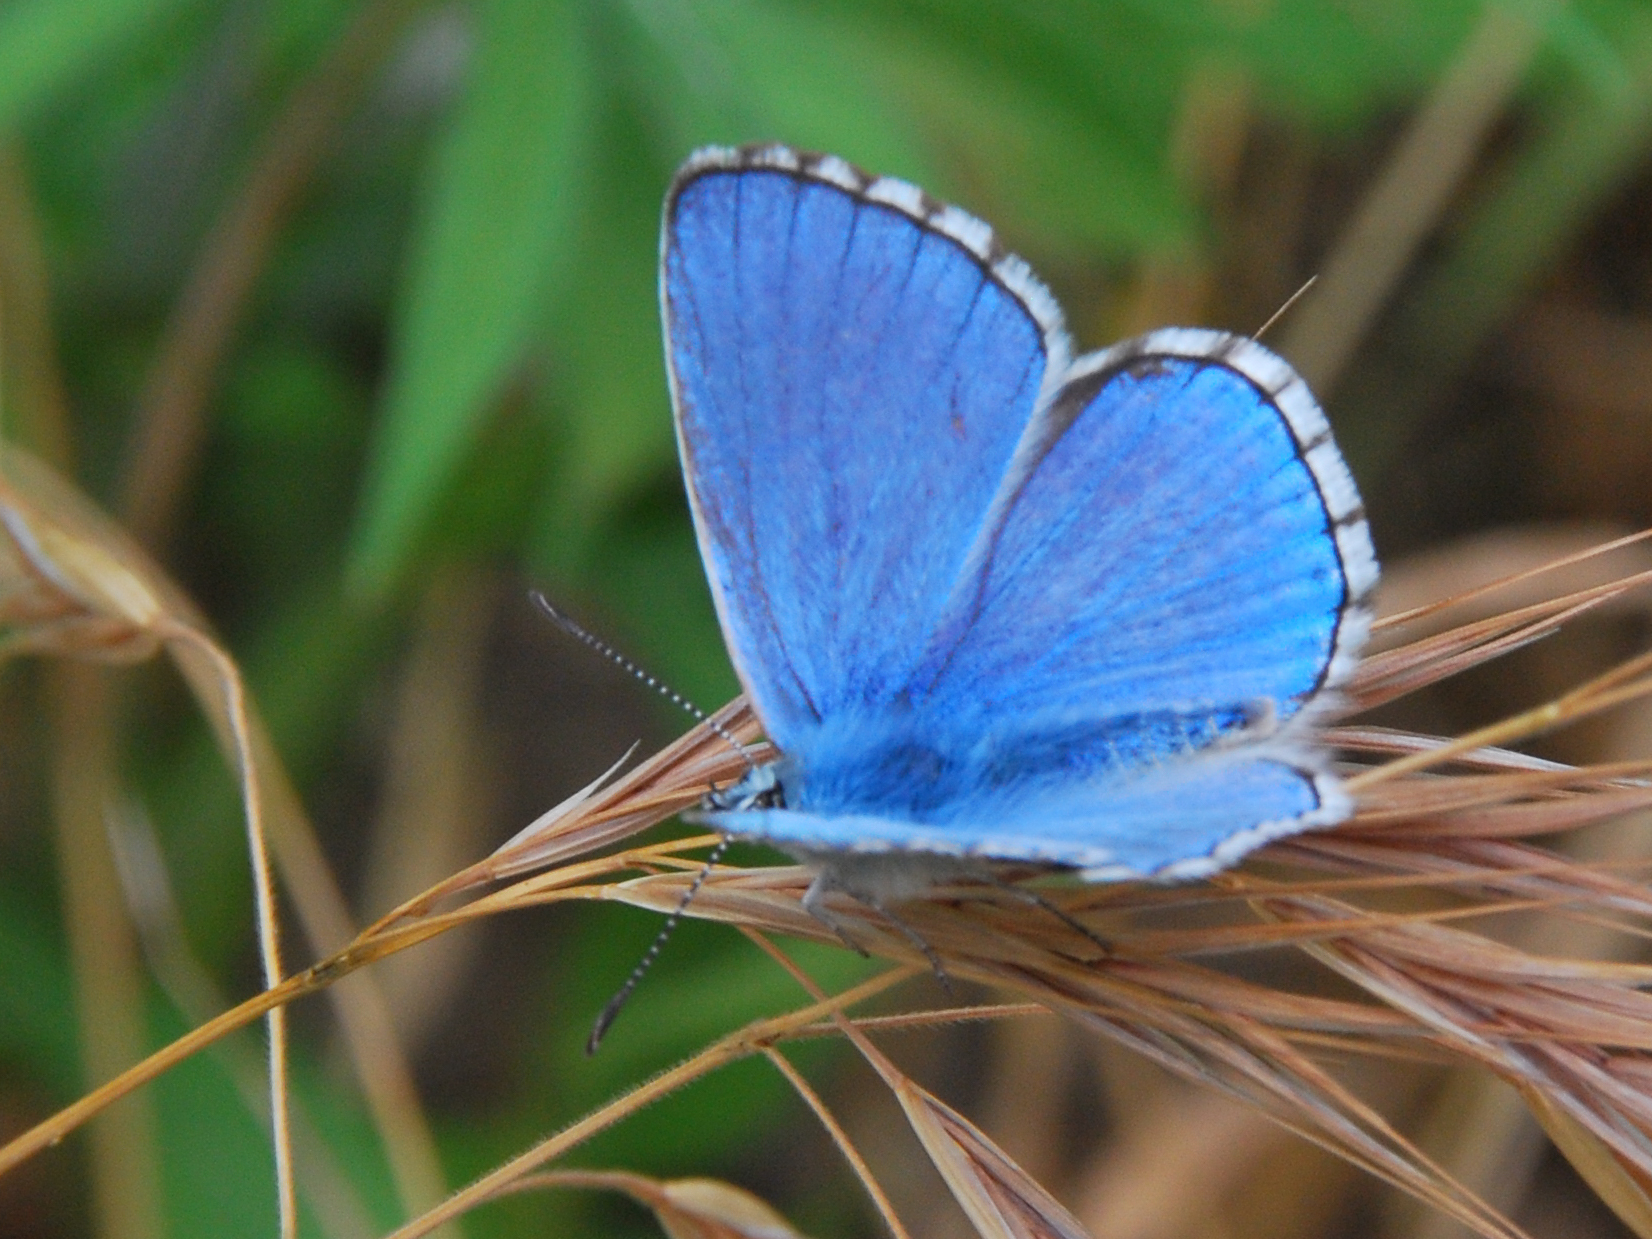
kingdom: Animalia
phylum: Arthropoda
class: Insecta
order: Lepidoptera
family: Lycaenidae
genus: Lysandra
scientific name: Lysandra bellargus
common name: Adonis blue
